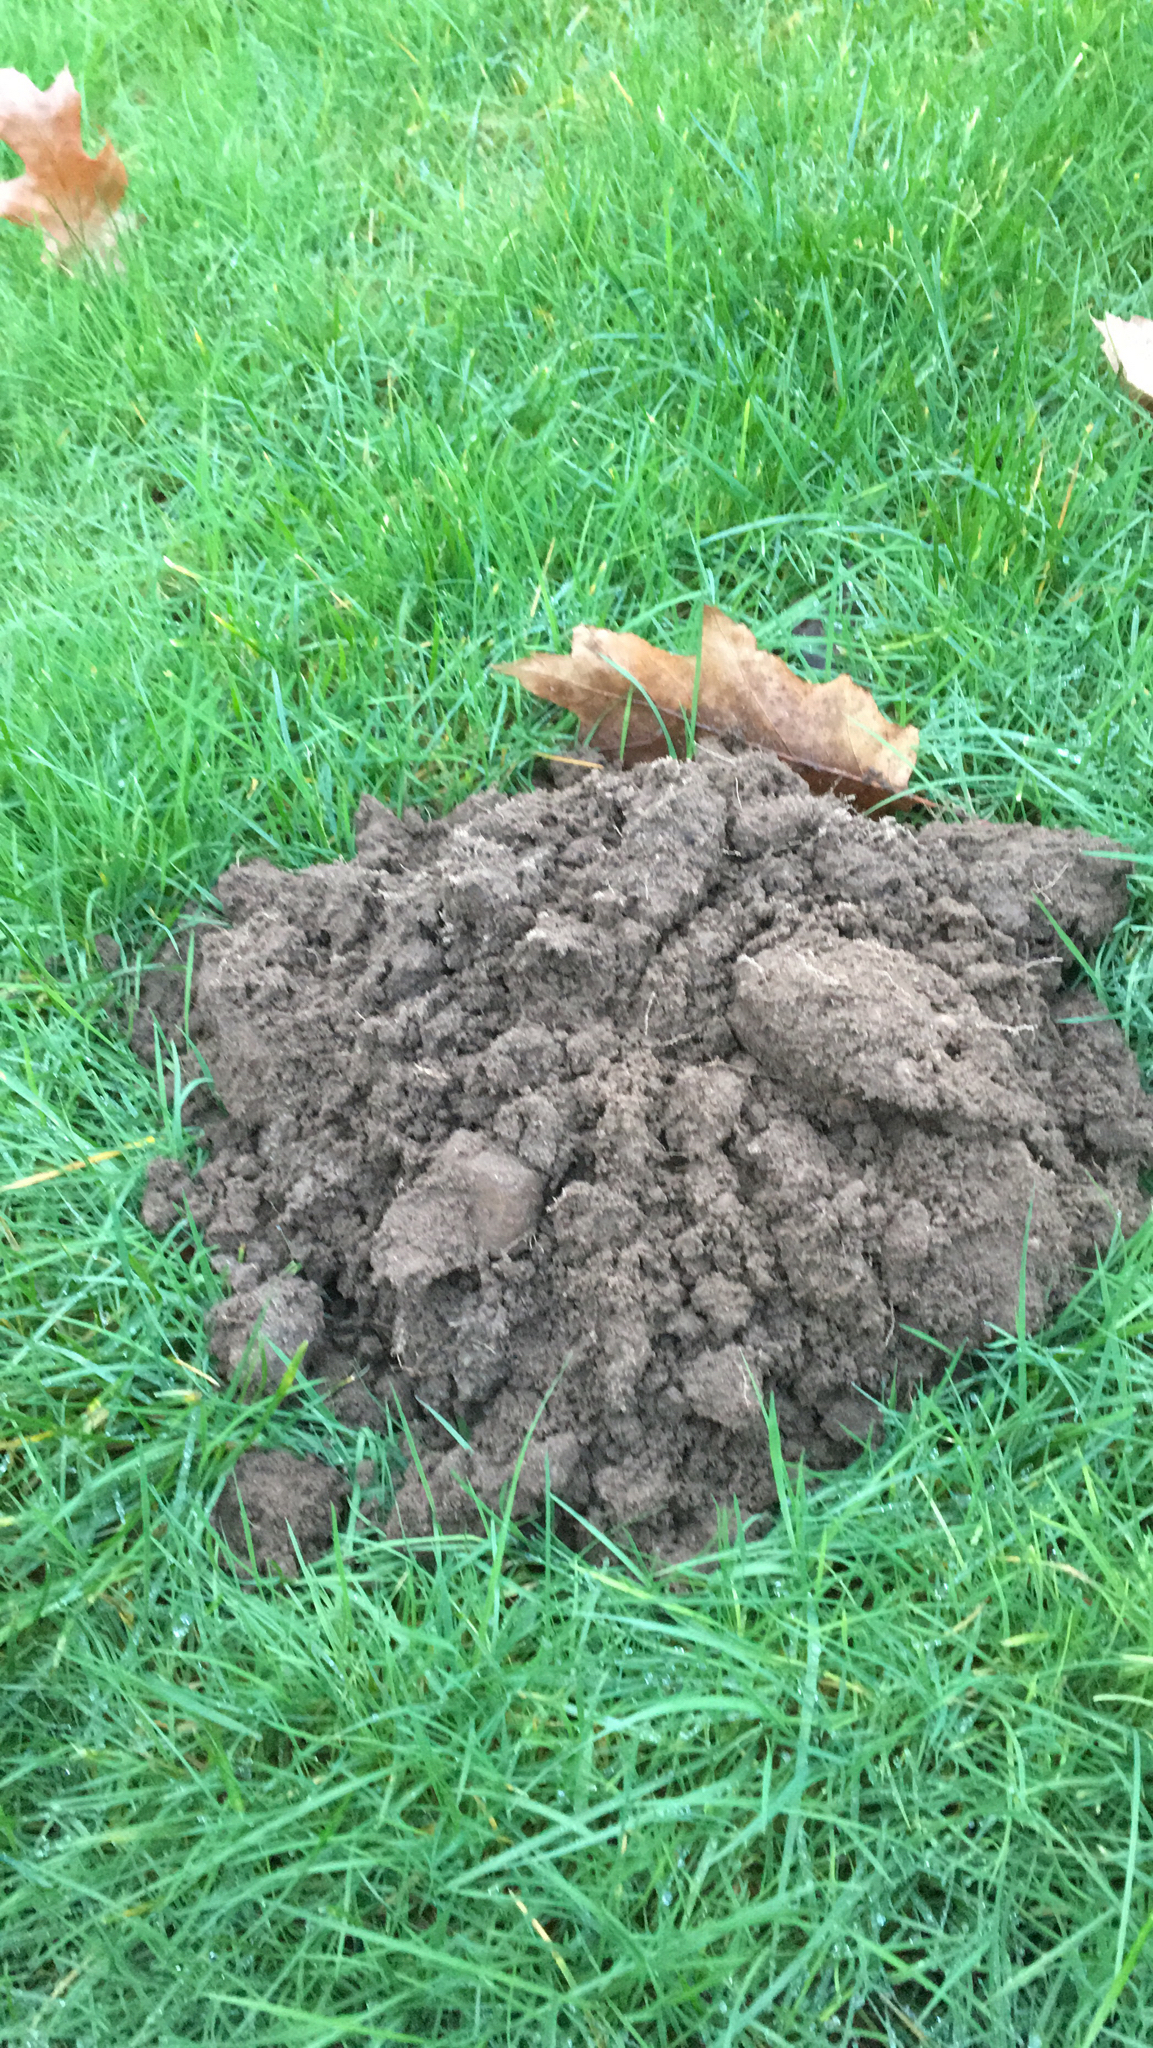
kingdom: Animalia
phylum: Chordata
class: Mammalia
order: Soricomorpha
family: Talpidae
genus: Talpa
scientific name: Talpa europaea
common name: European mole
